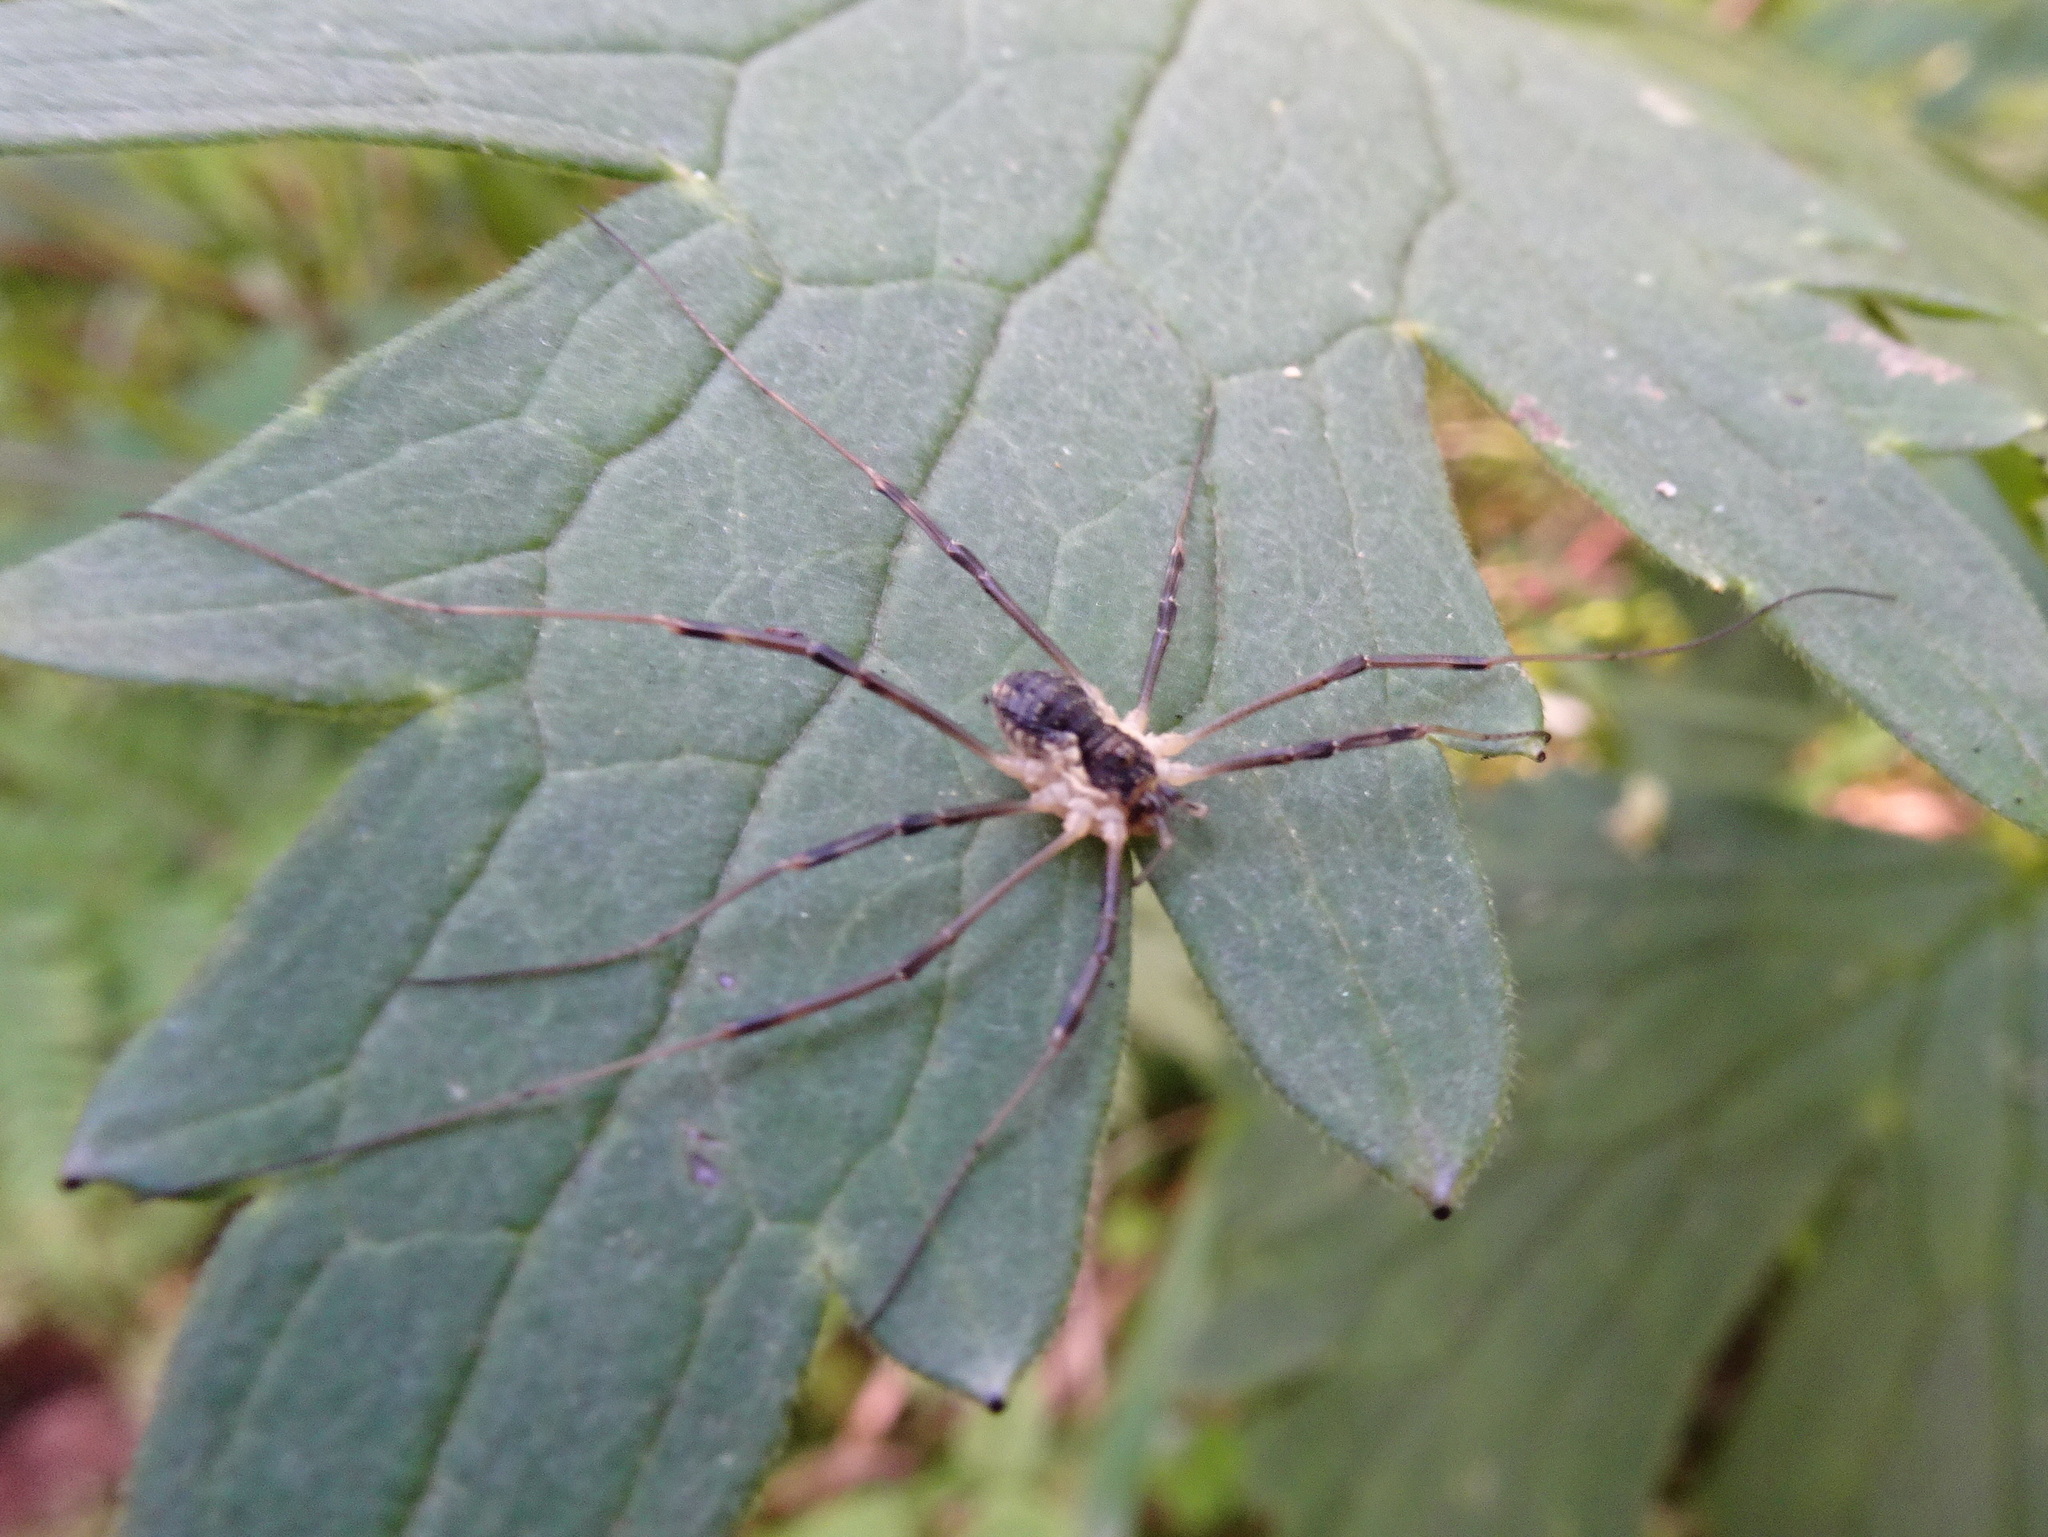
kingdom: Animalia
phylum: Arthropoda
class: Arachnida
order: Opiliones
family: Phalangiidae
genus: Mitopus
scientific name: Mitopus morio
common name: Saddleback harvestman
